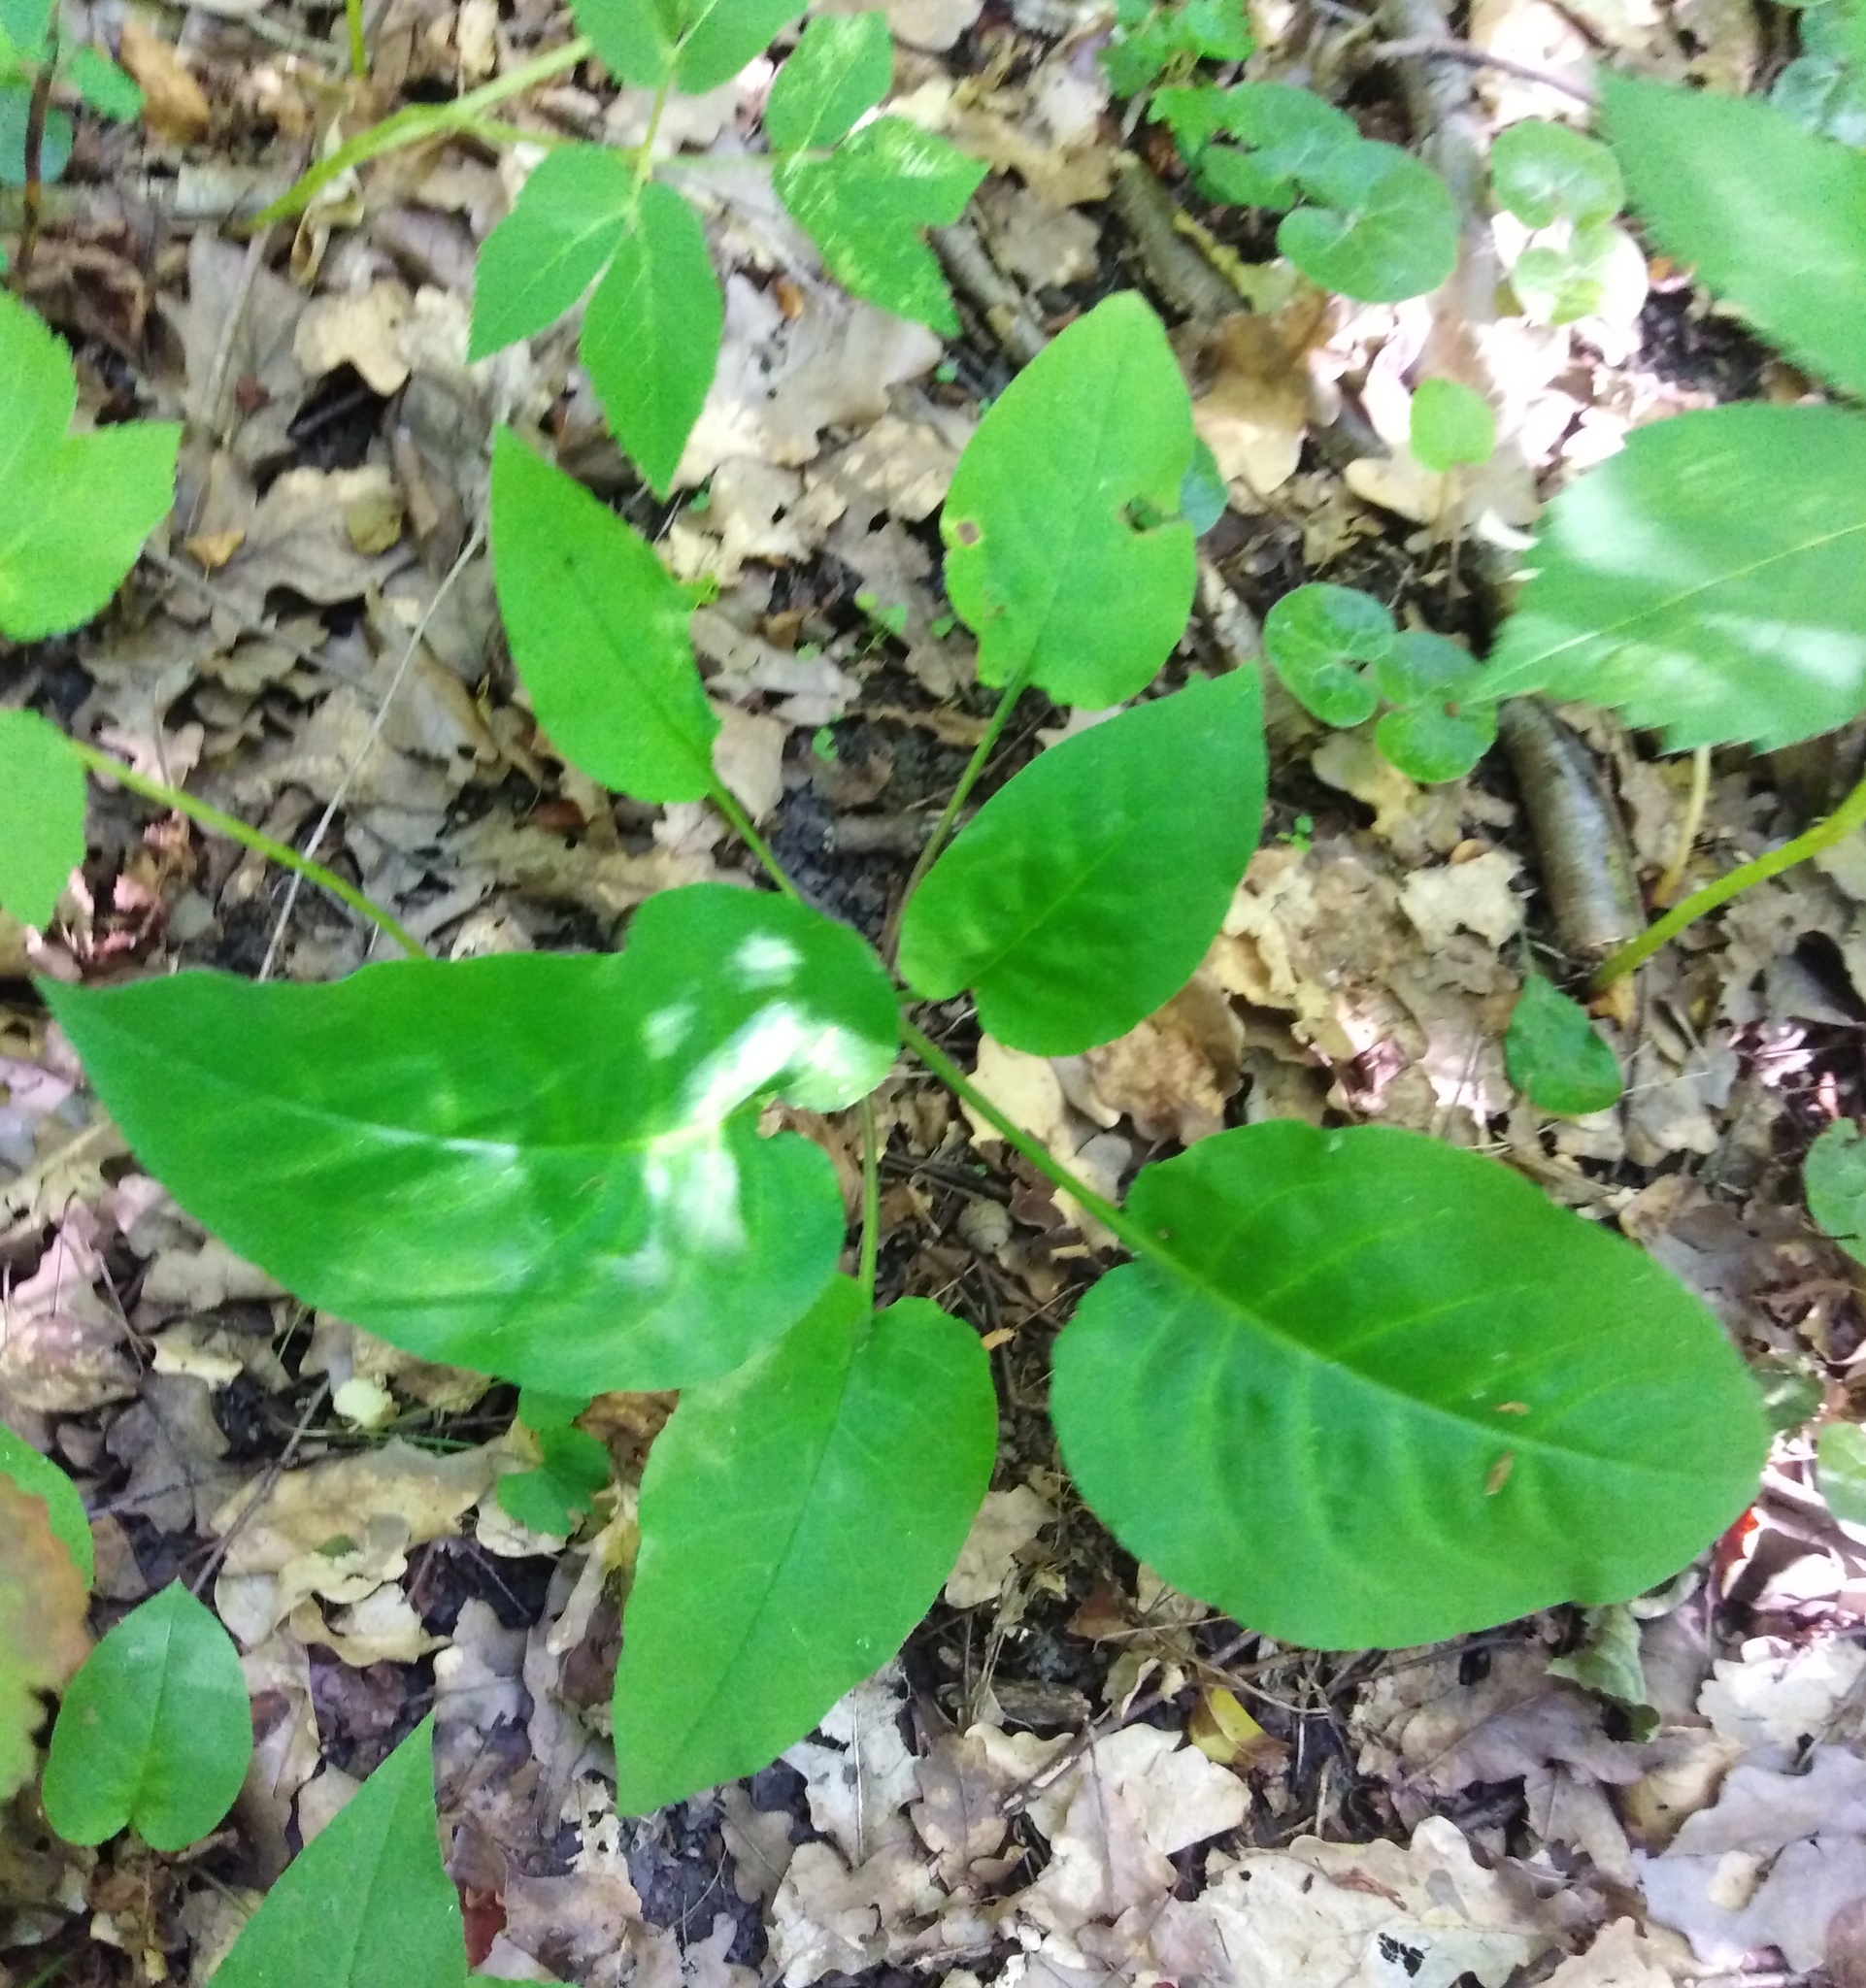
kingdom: Plantae
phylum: Tracheophyta
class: Magnoliopsida
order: Boraginales
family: Boraginaceae
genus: Pulmonaria
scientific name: Pulmonaria obscura
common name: Suffolk lungwort
